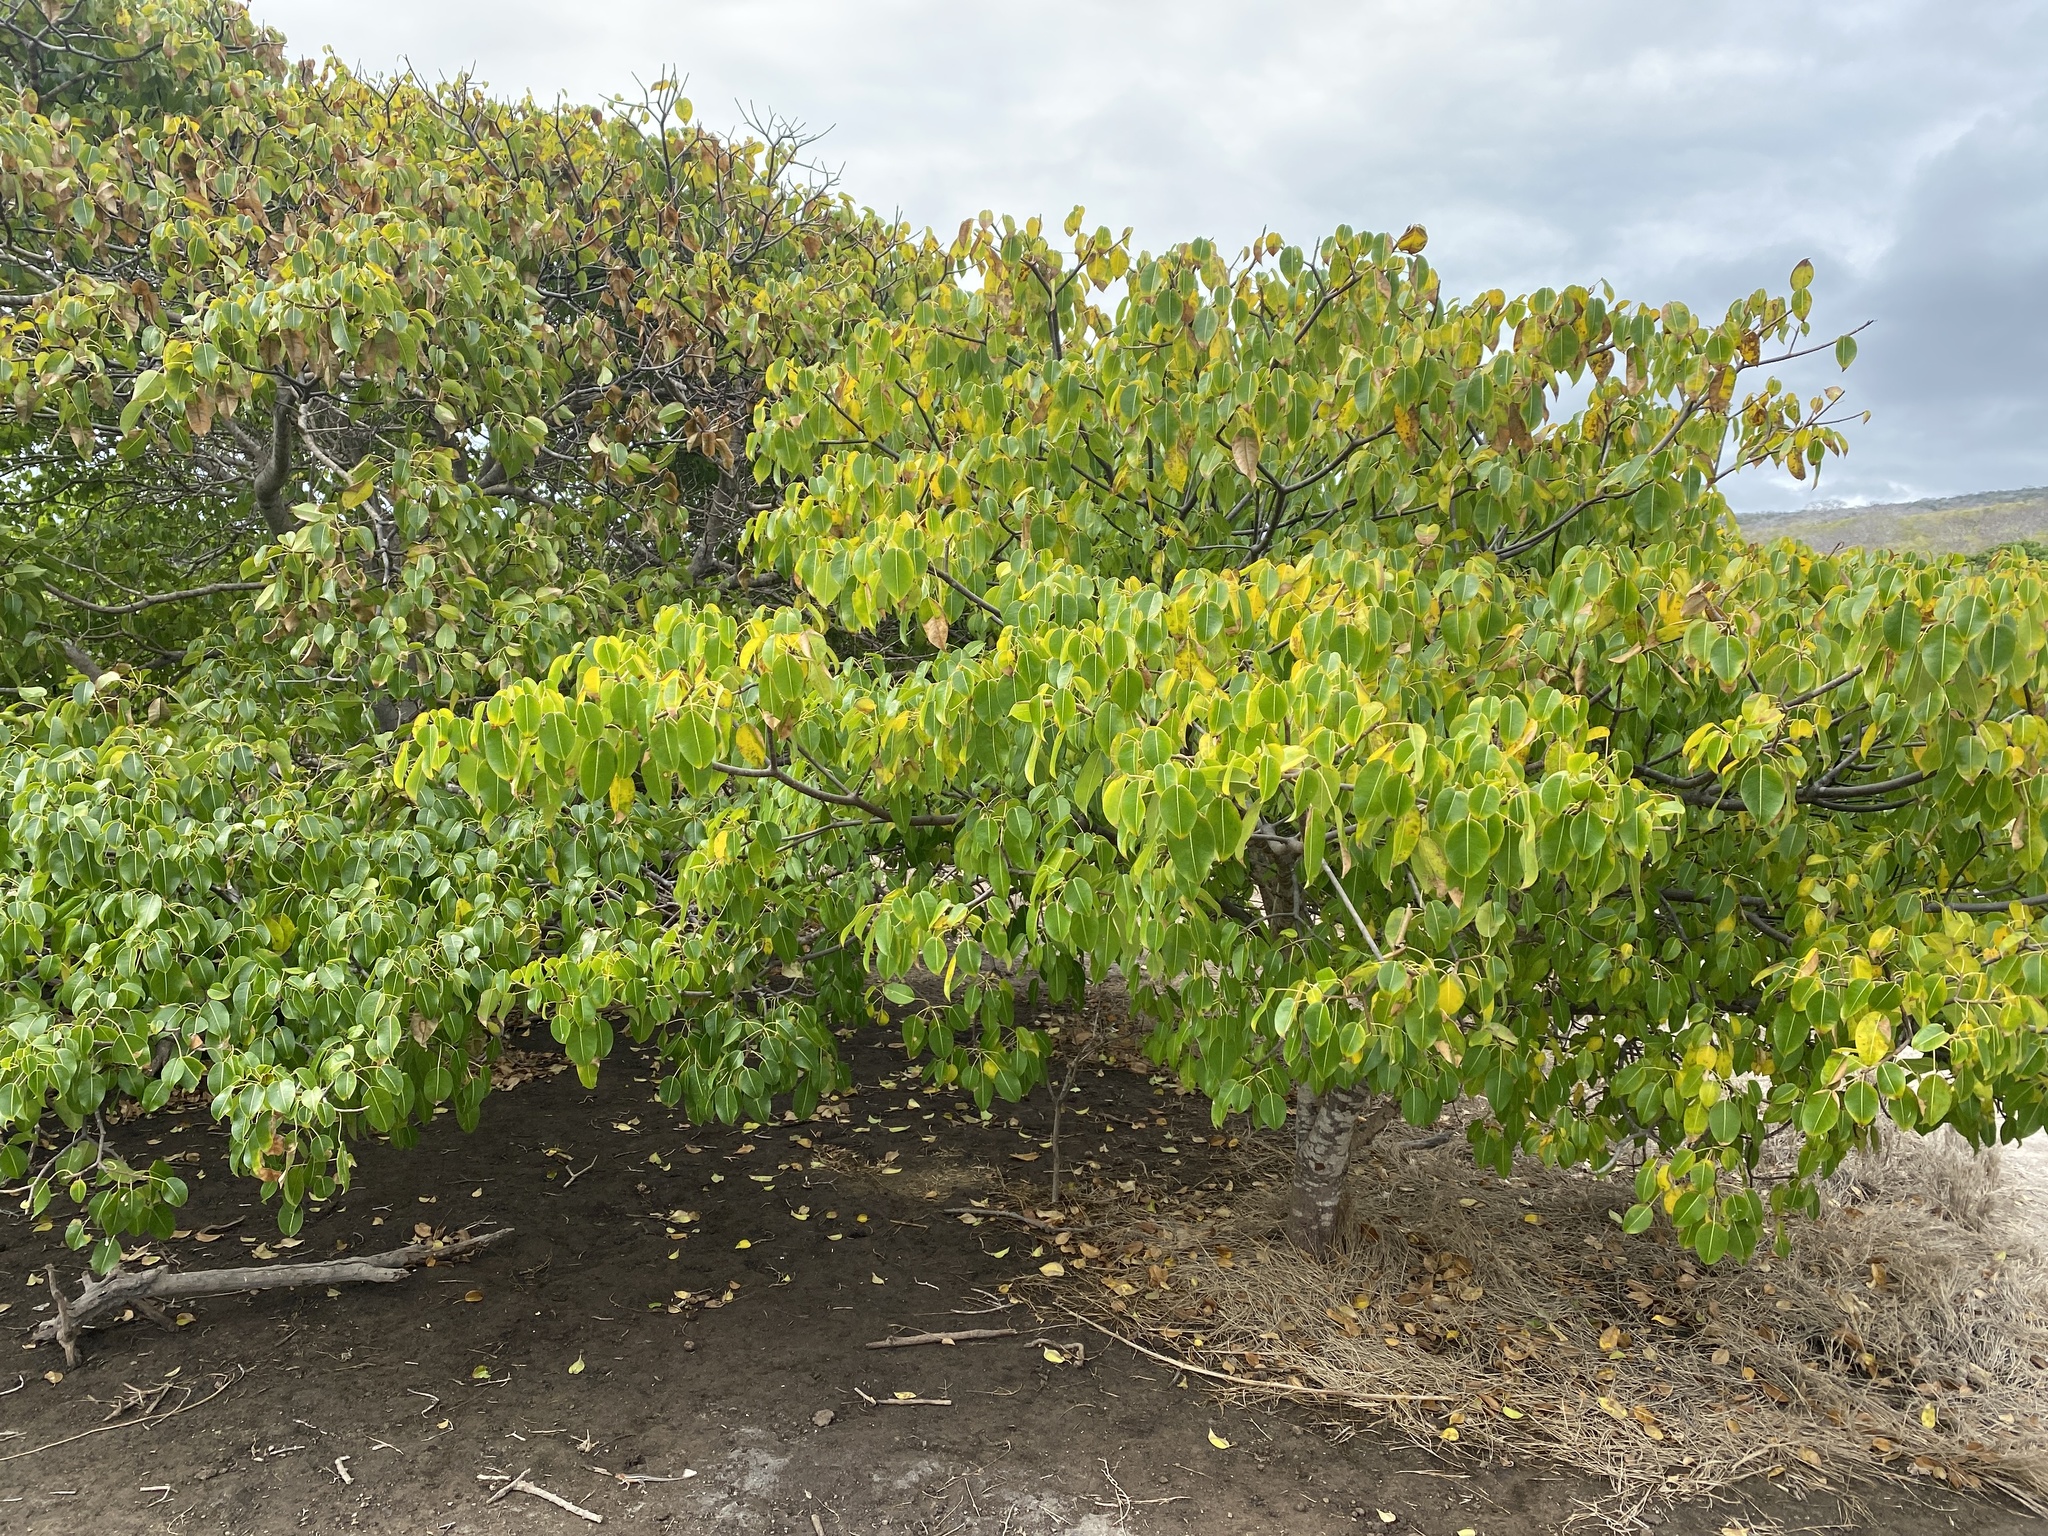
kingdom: Plantae
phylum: Tracheophyta
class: Magnoliopsida
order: Malpighiales
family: Euphorbiaceae
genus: Hippomane
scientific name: Hippomane mancinella
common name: Manchineel
